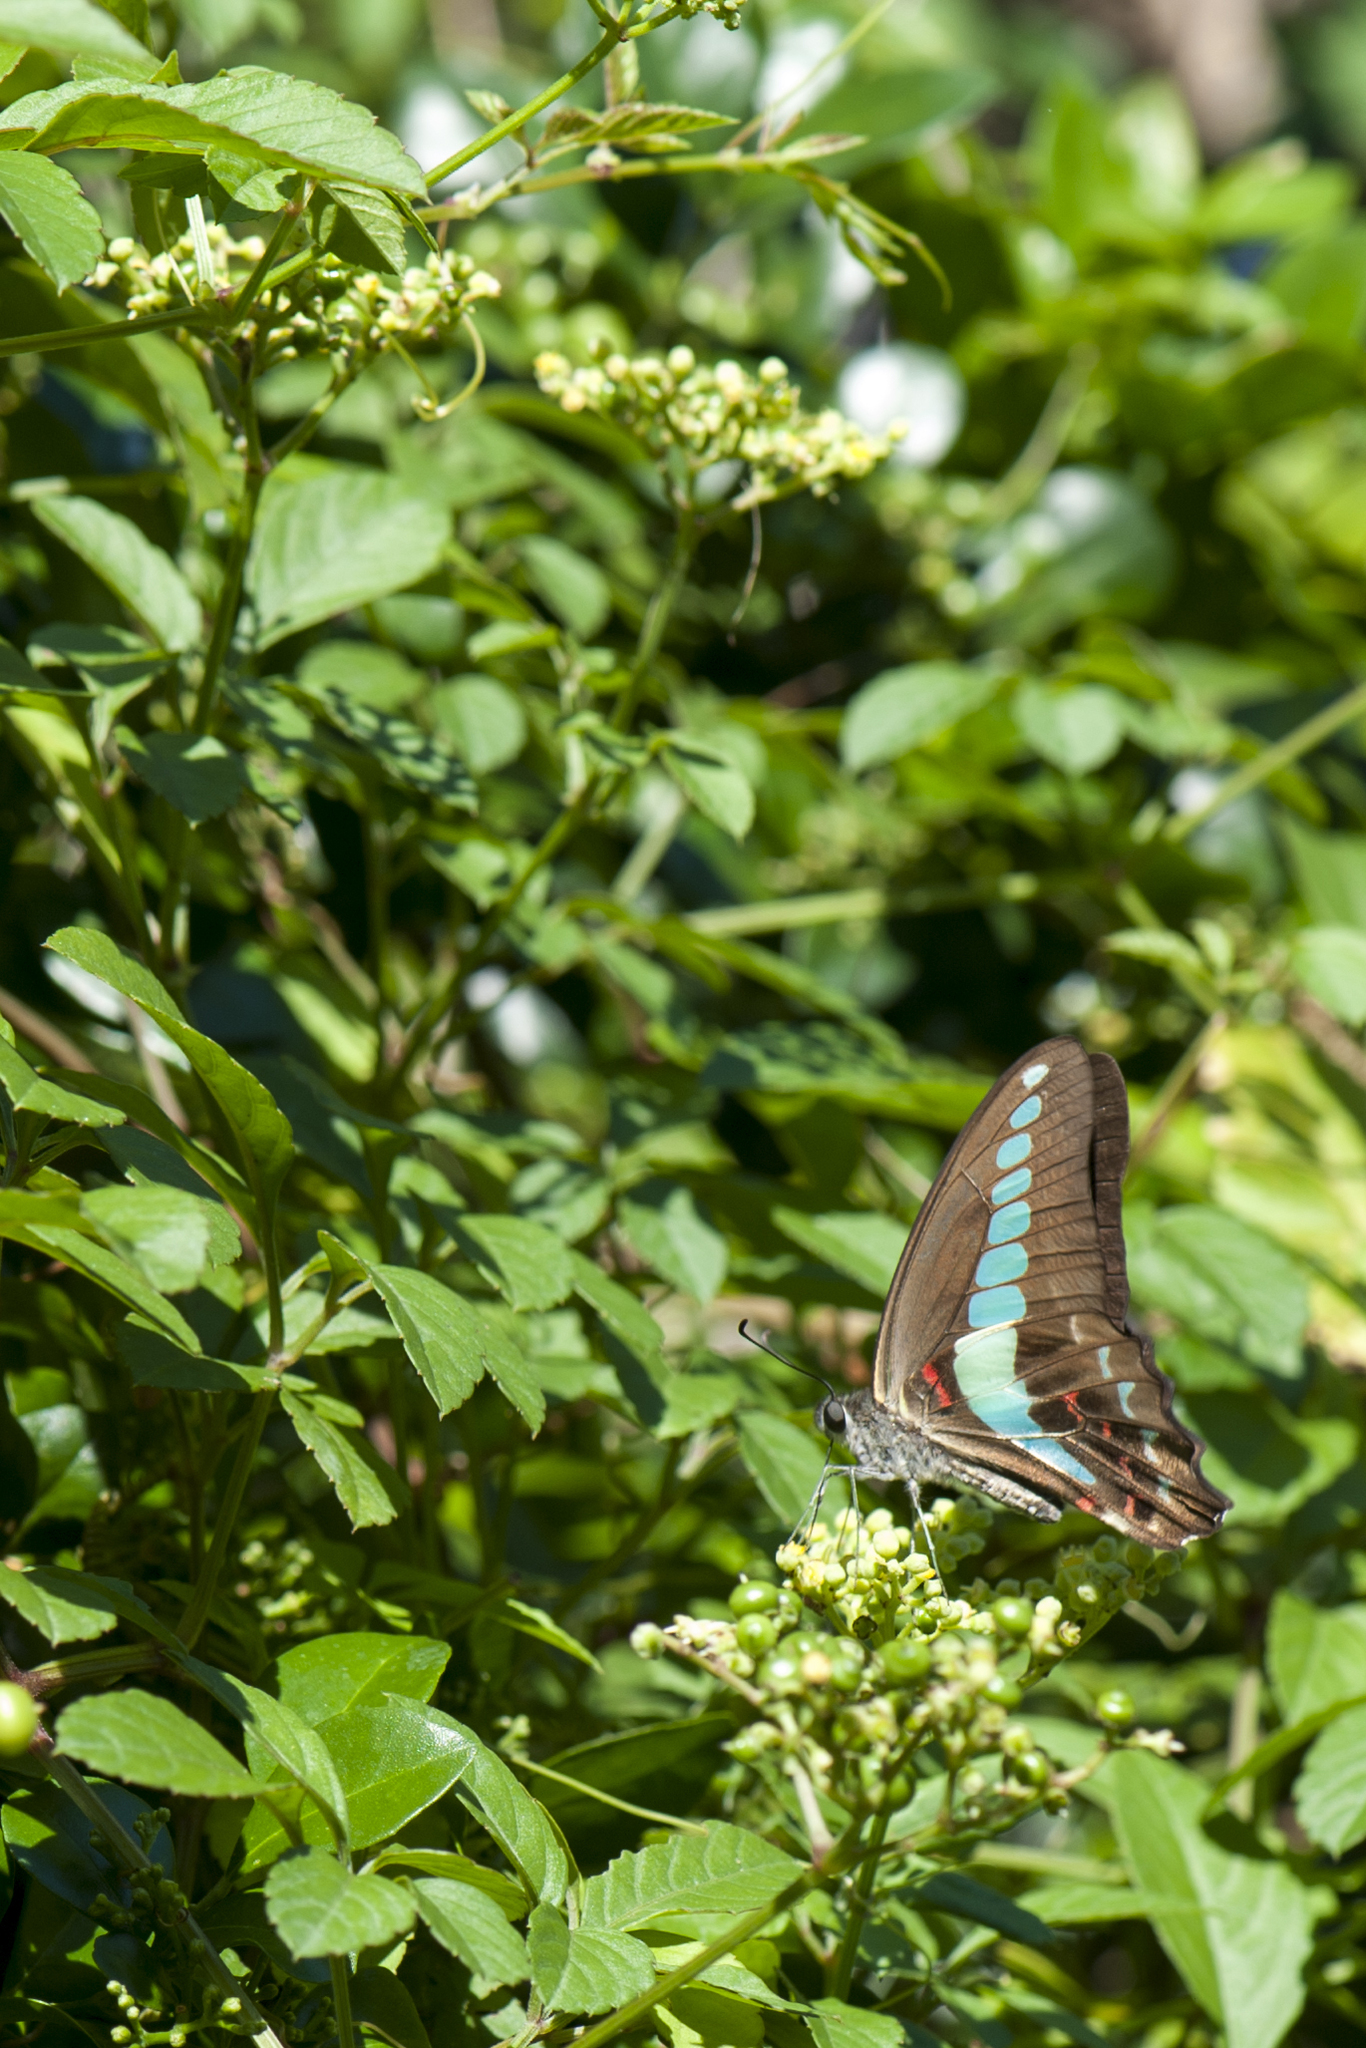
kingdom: Fungi
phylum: Ascomycota
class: Sordariomycetes
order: Microascales
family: Microascaceae
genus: Graphium
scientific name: Graphium sarpedon
